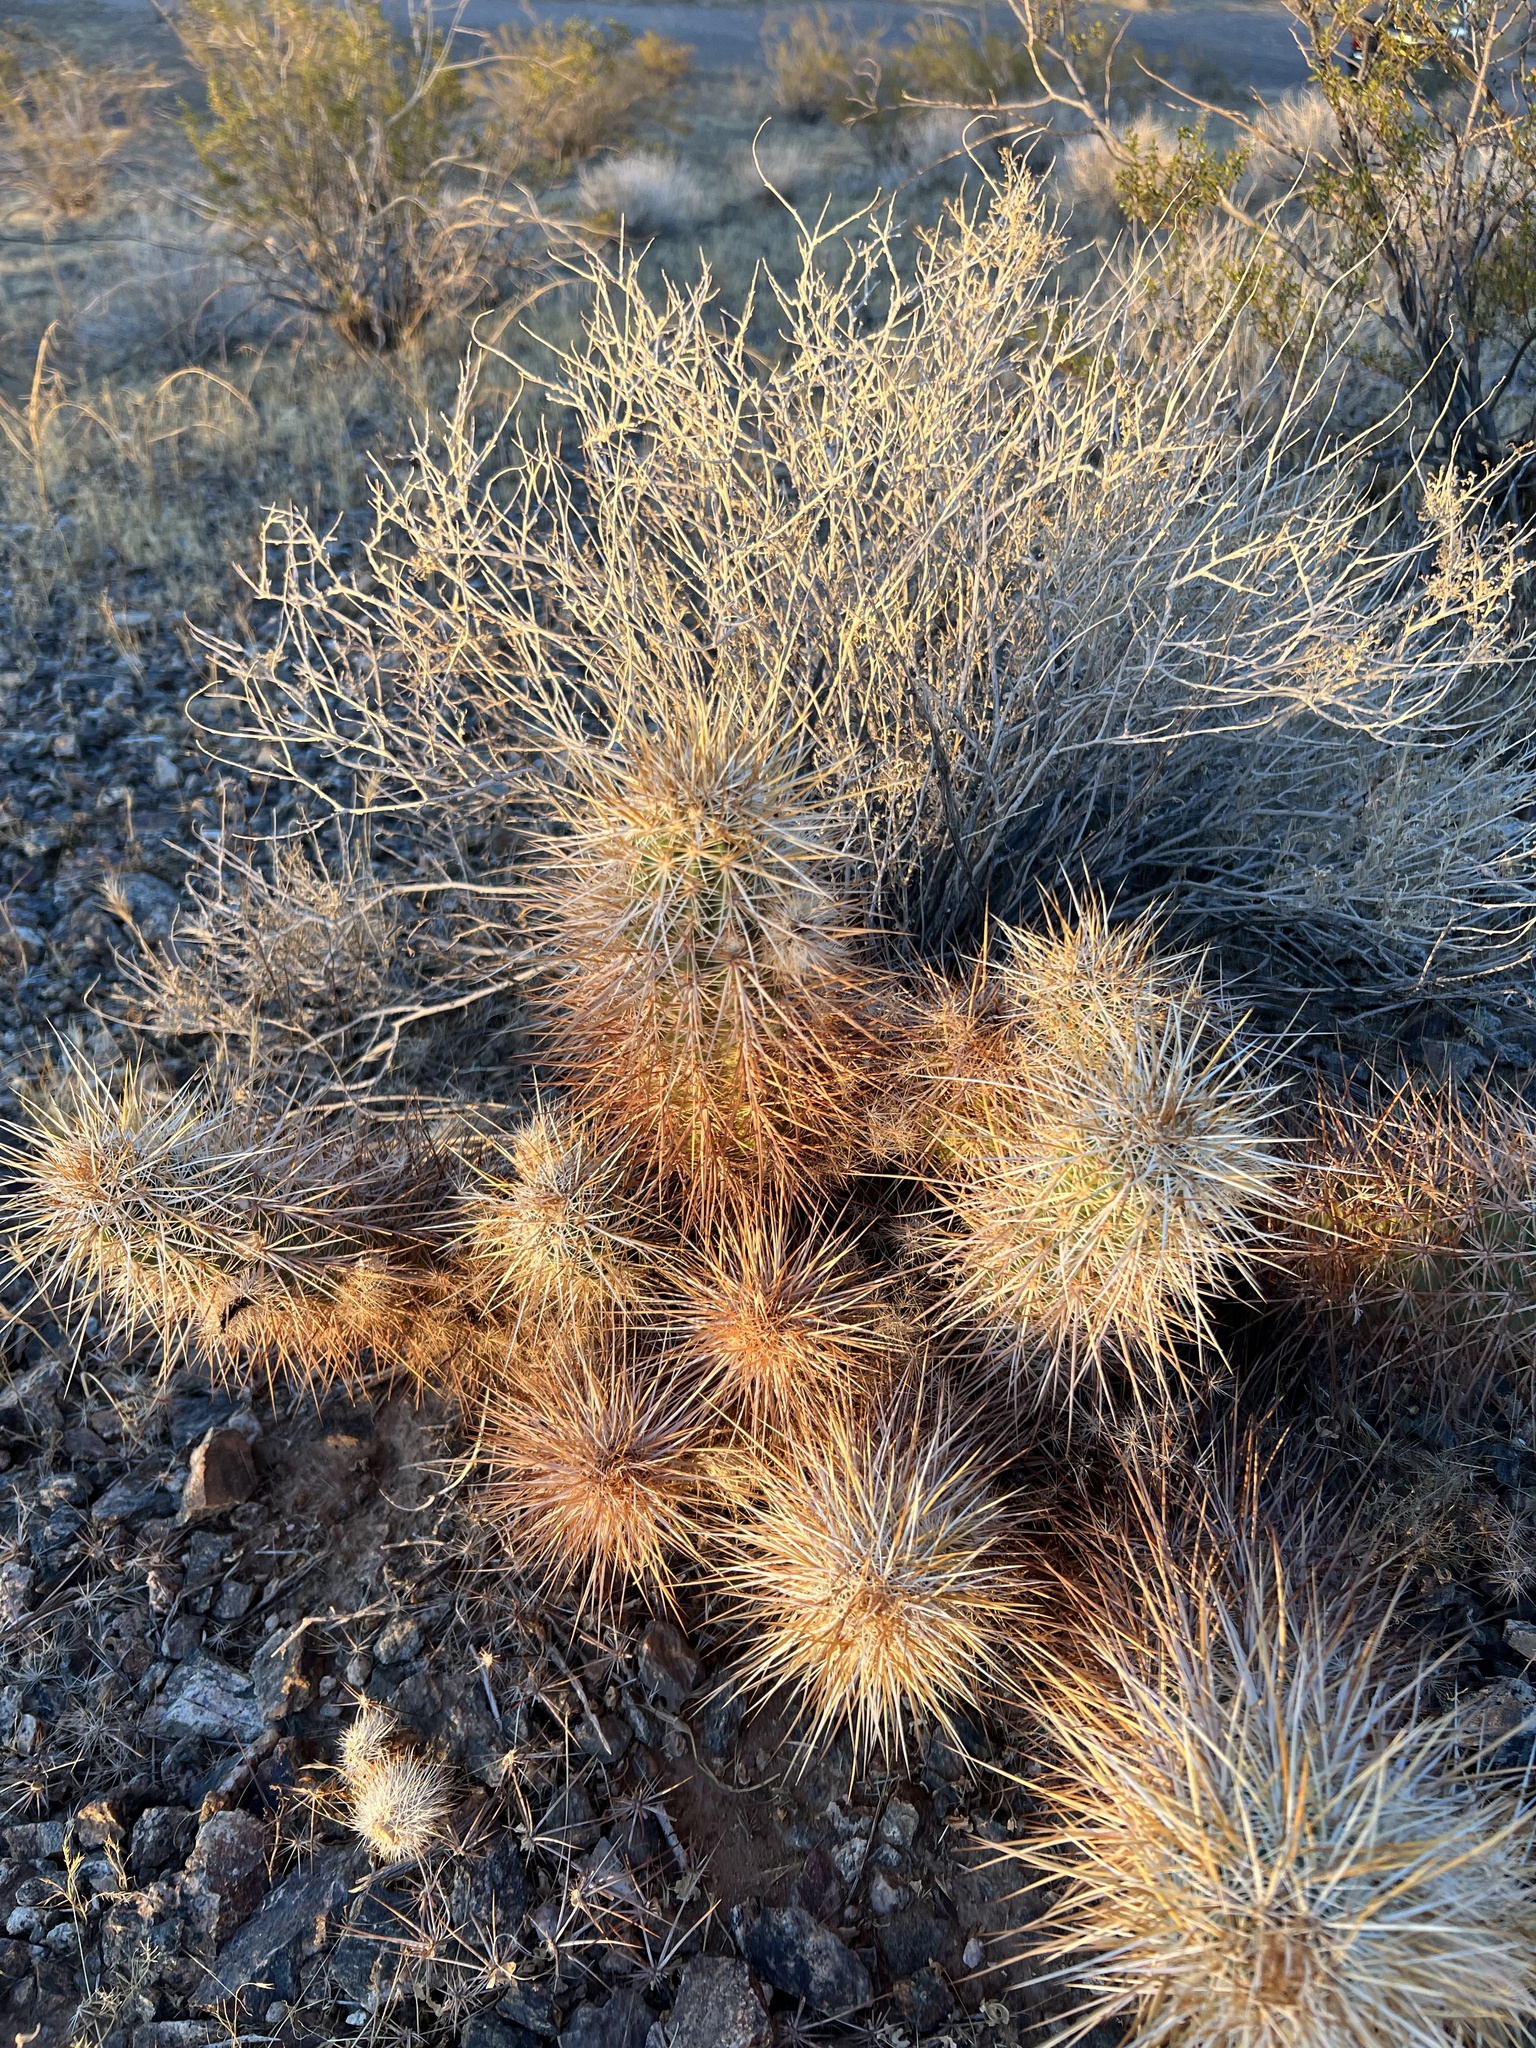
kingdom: Plantae
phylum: Tracheophyta
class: Magnoliopsida
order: Caryophyllales
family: Cactaceae
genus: Echinocereus
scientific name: Echinocereus engelmannii
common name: Engelmann's hedgehog cactus
